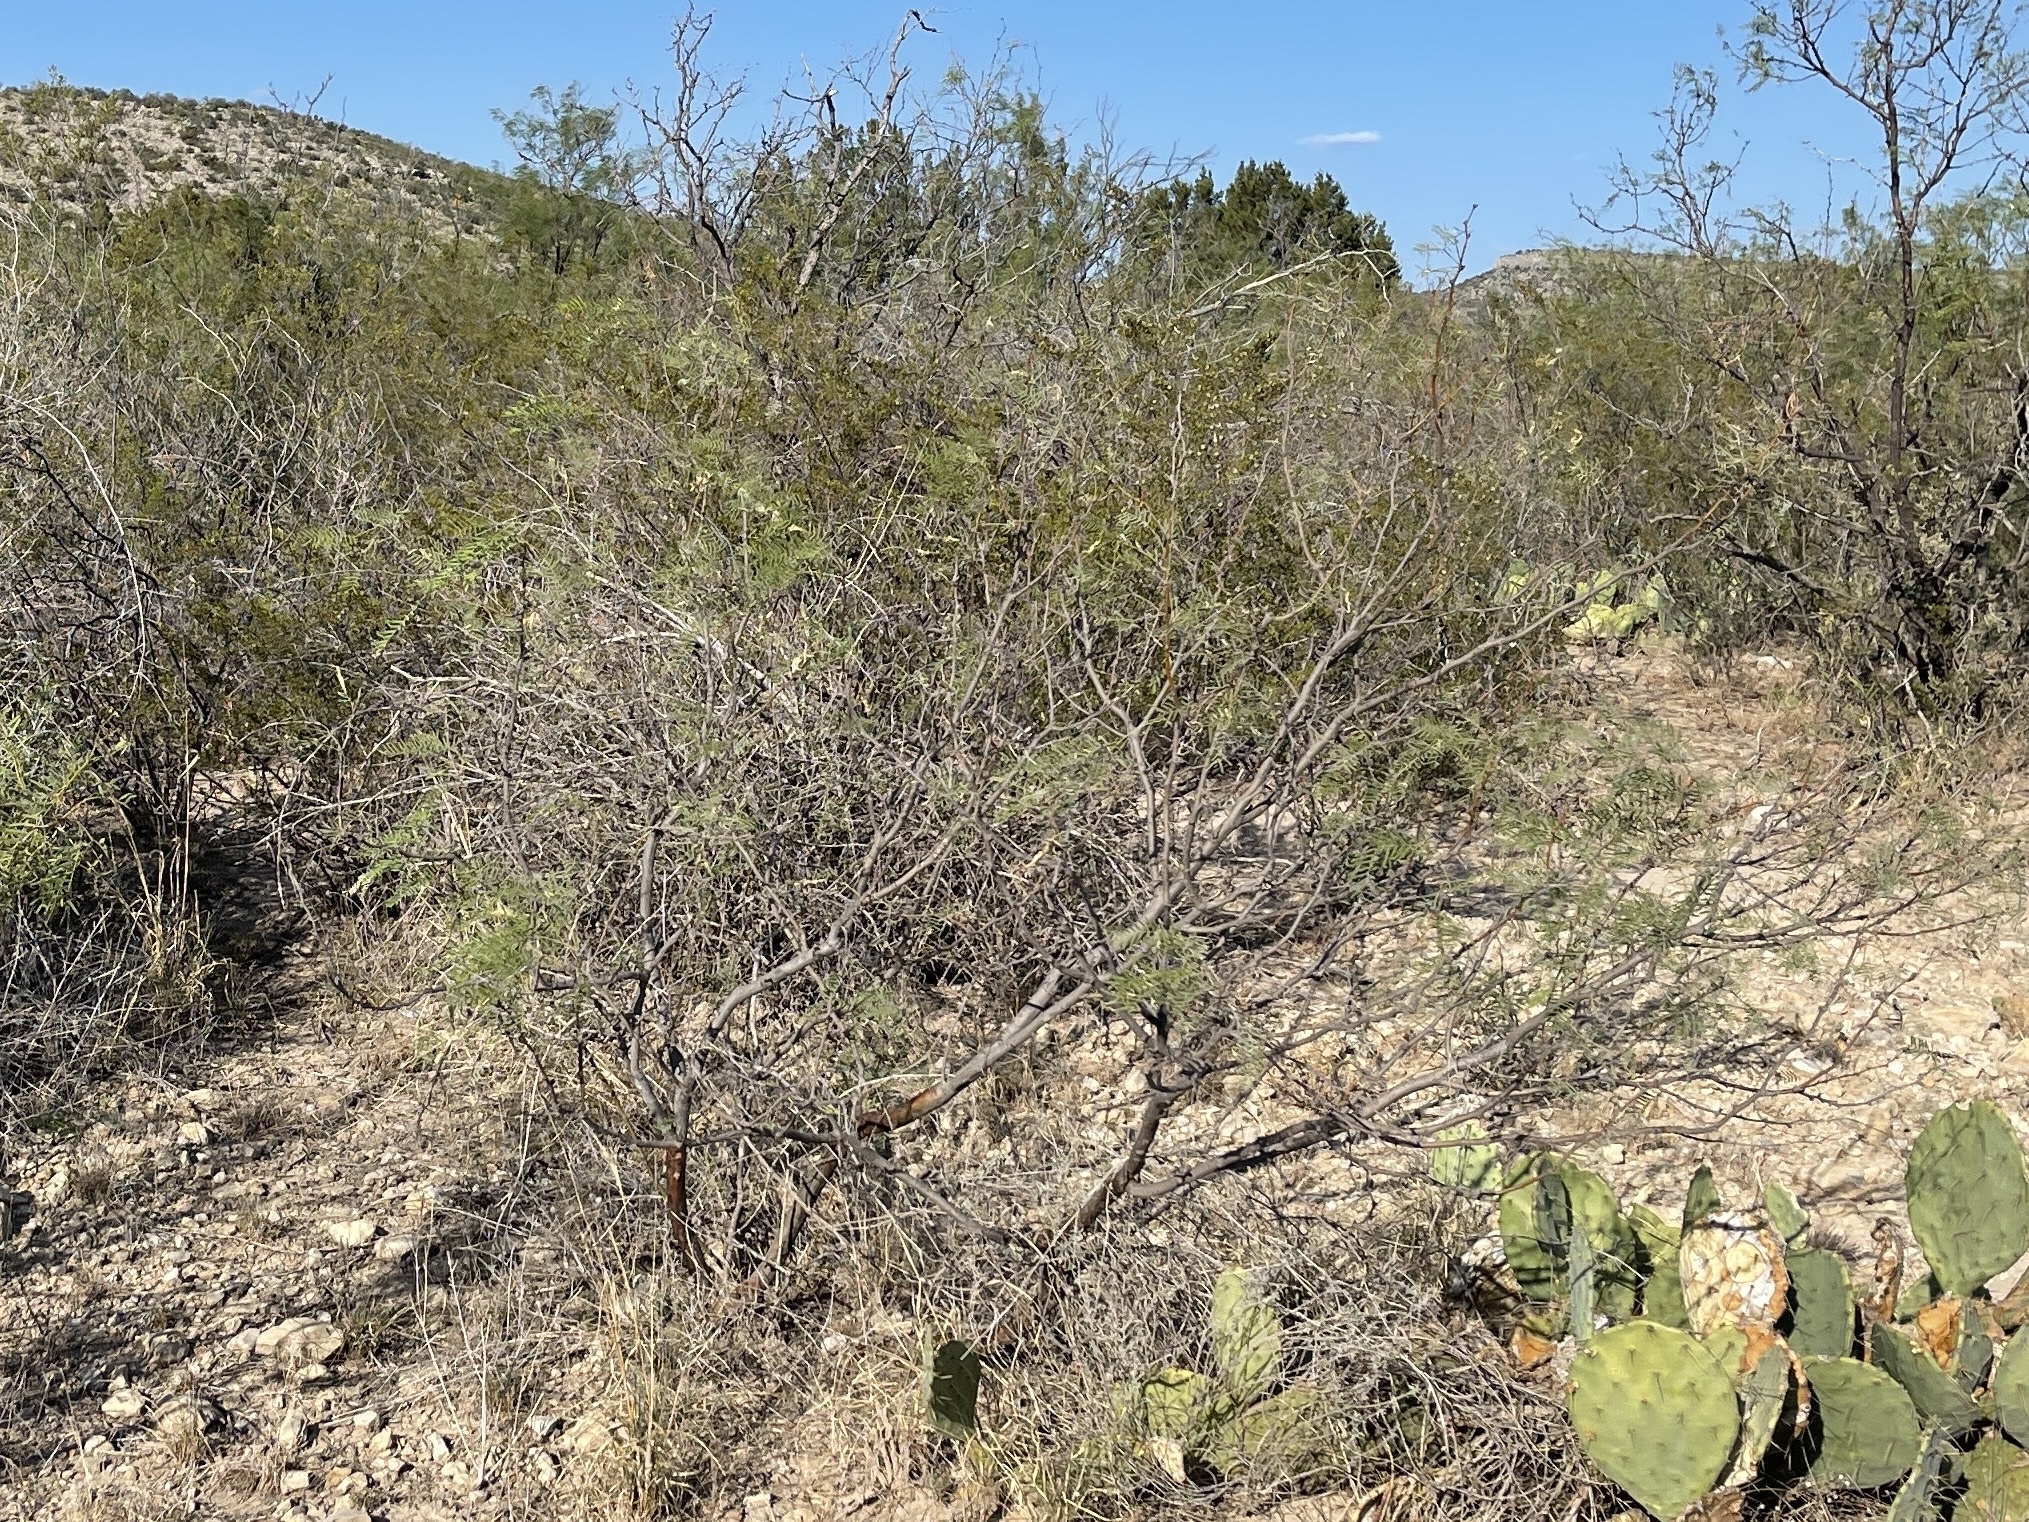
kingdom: Plantae
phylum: Tracheophyta
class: Magnoliopsida
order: Zygophyllales
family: Zygophyllaceae
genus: Larrea
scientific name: Larrea tridentata
